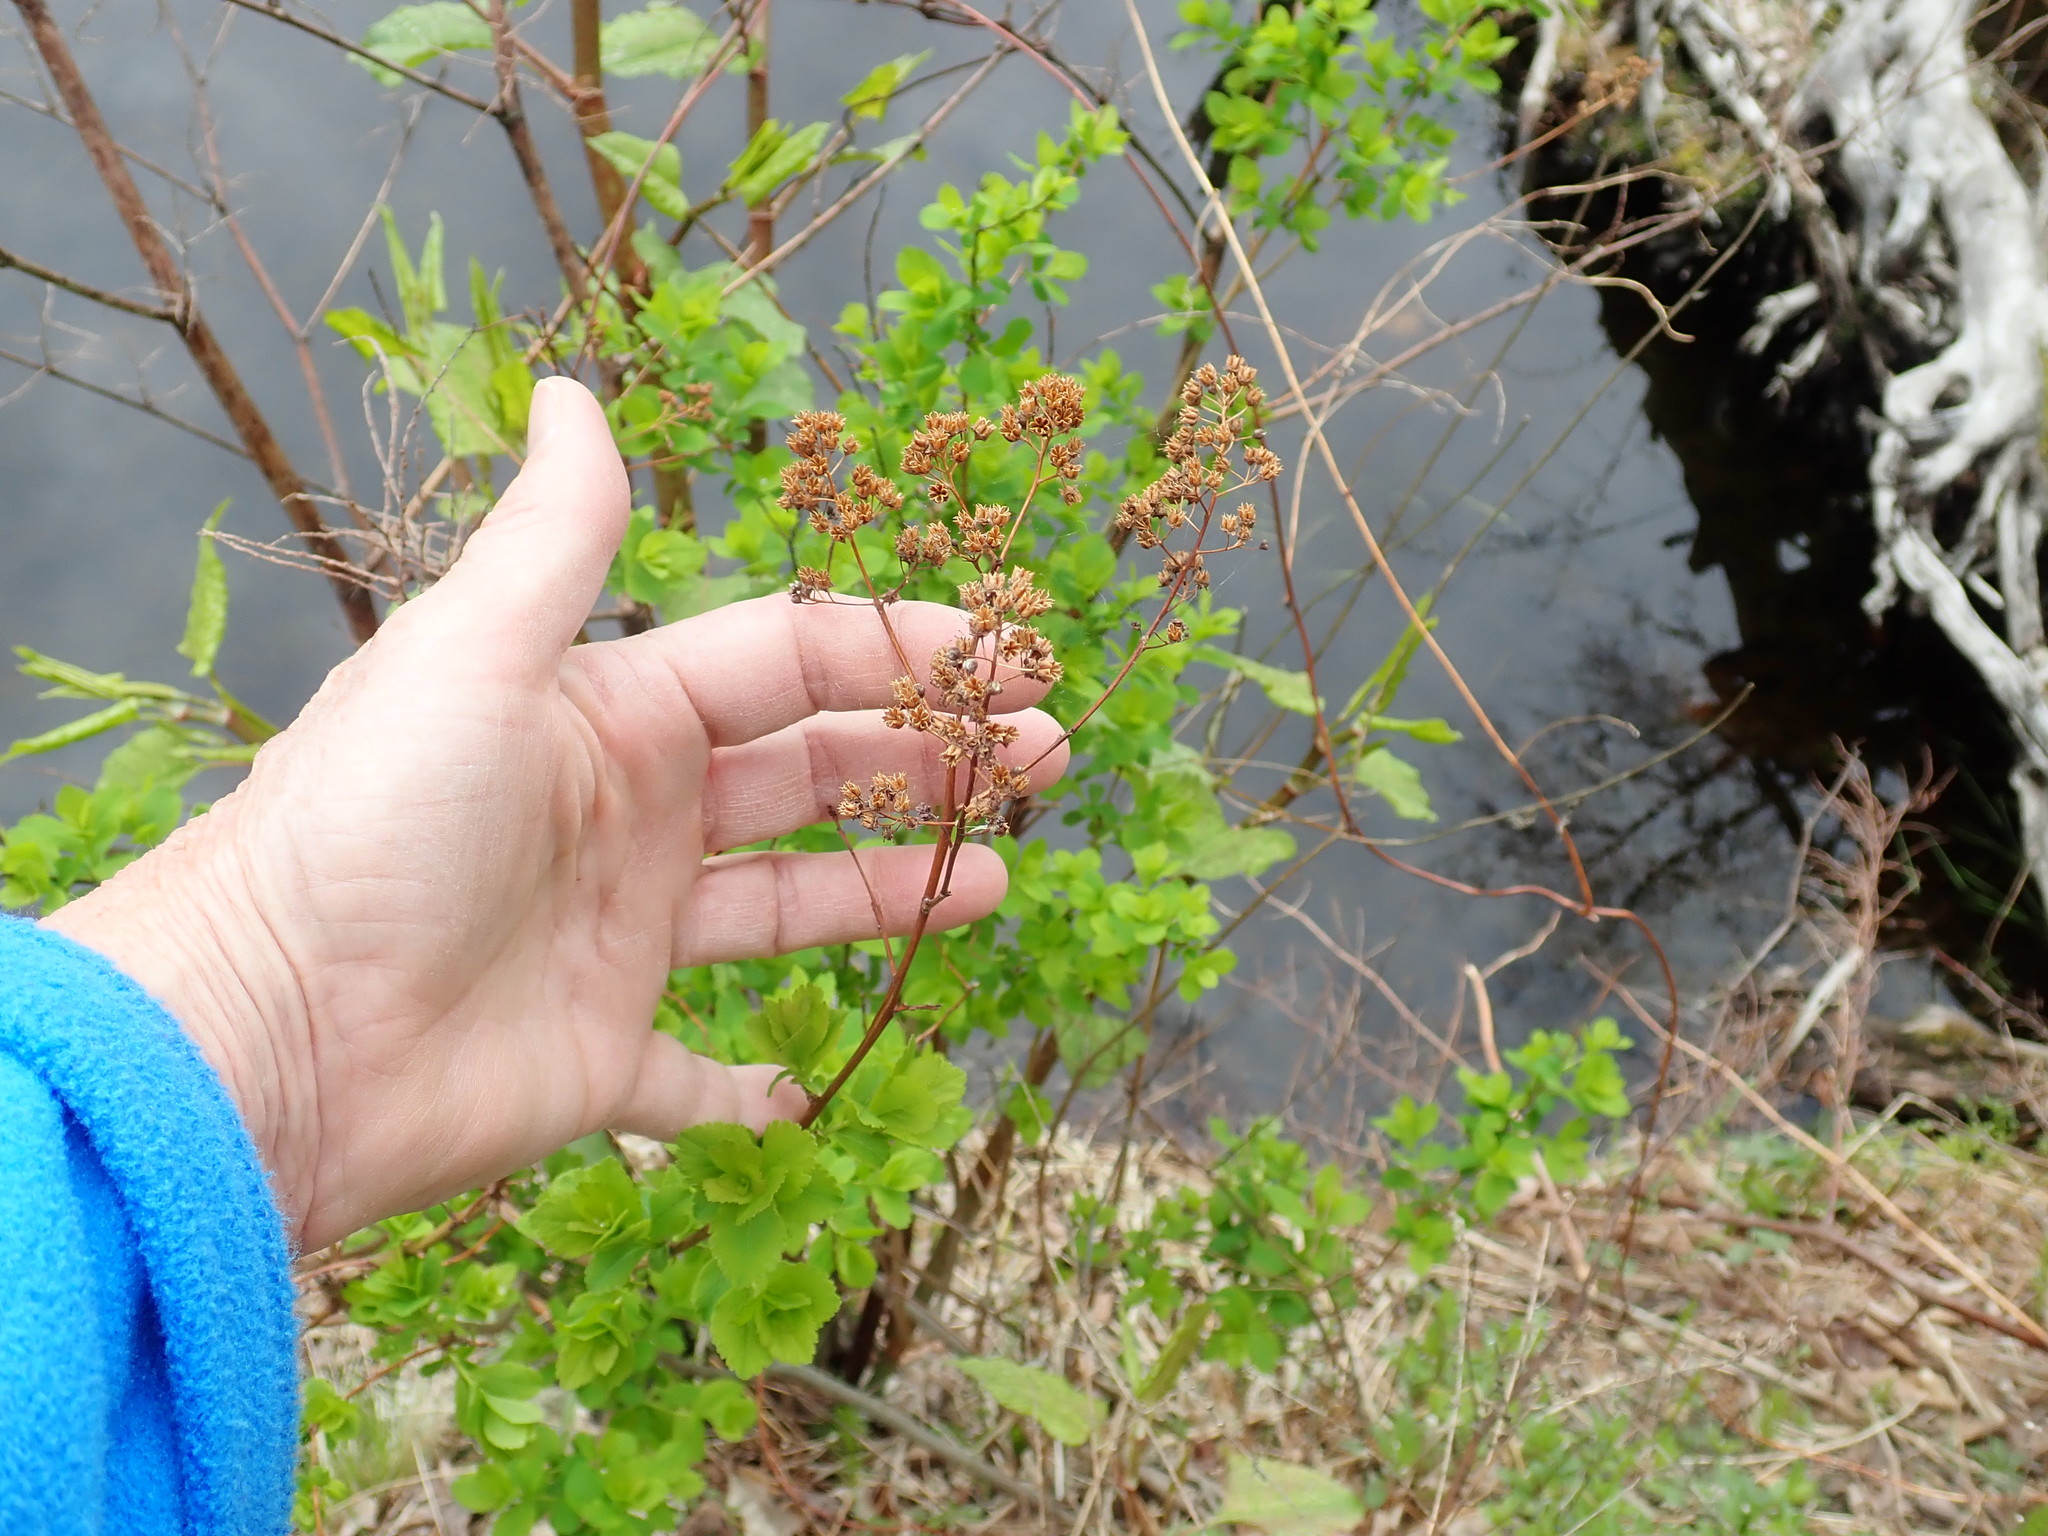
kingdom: Plantae
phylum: Tracheophyta
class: Magnoliopsida
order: Rosales
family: Rosaceae
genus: Spiraea
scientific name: Spiraea alba
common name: Pale bridewort
